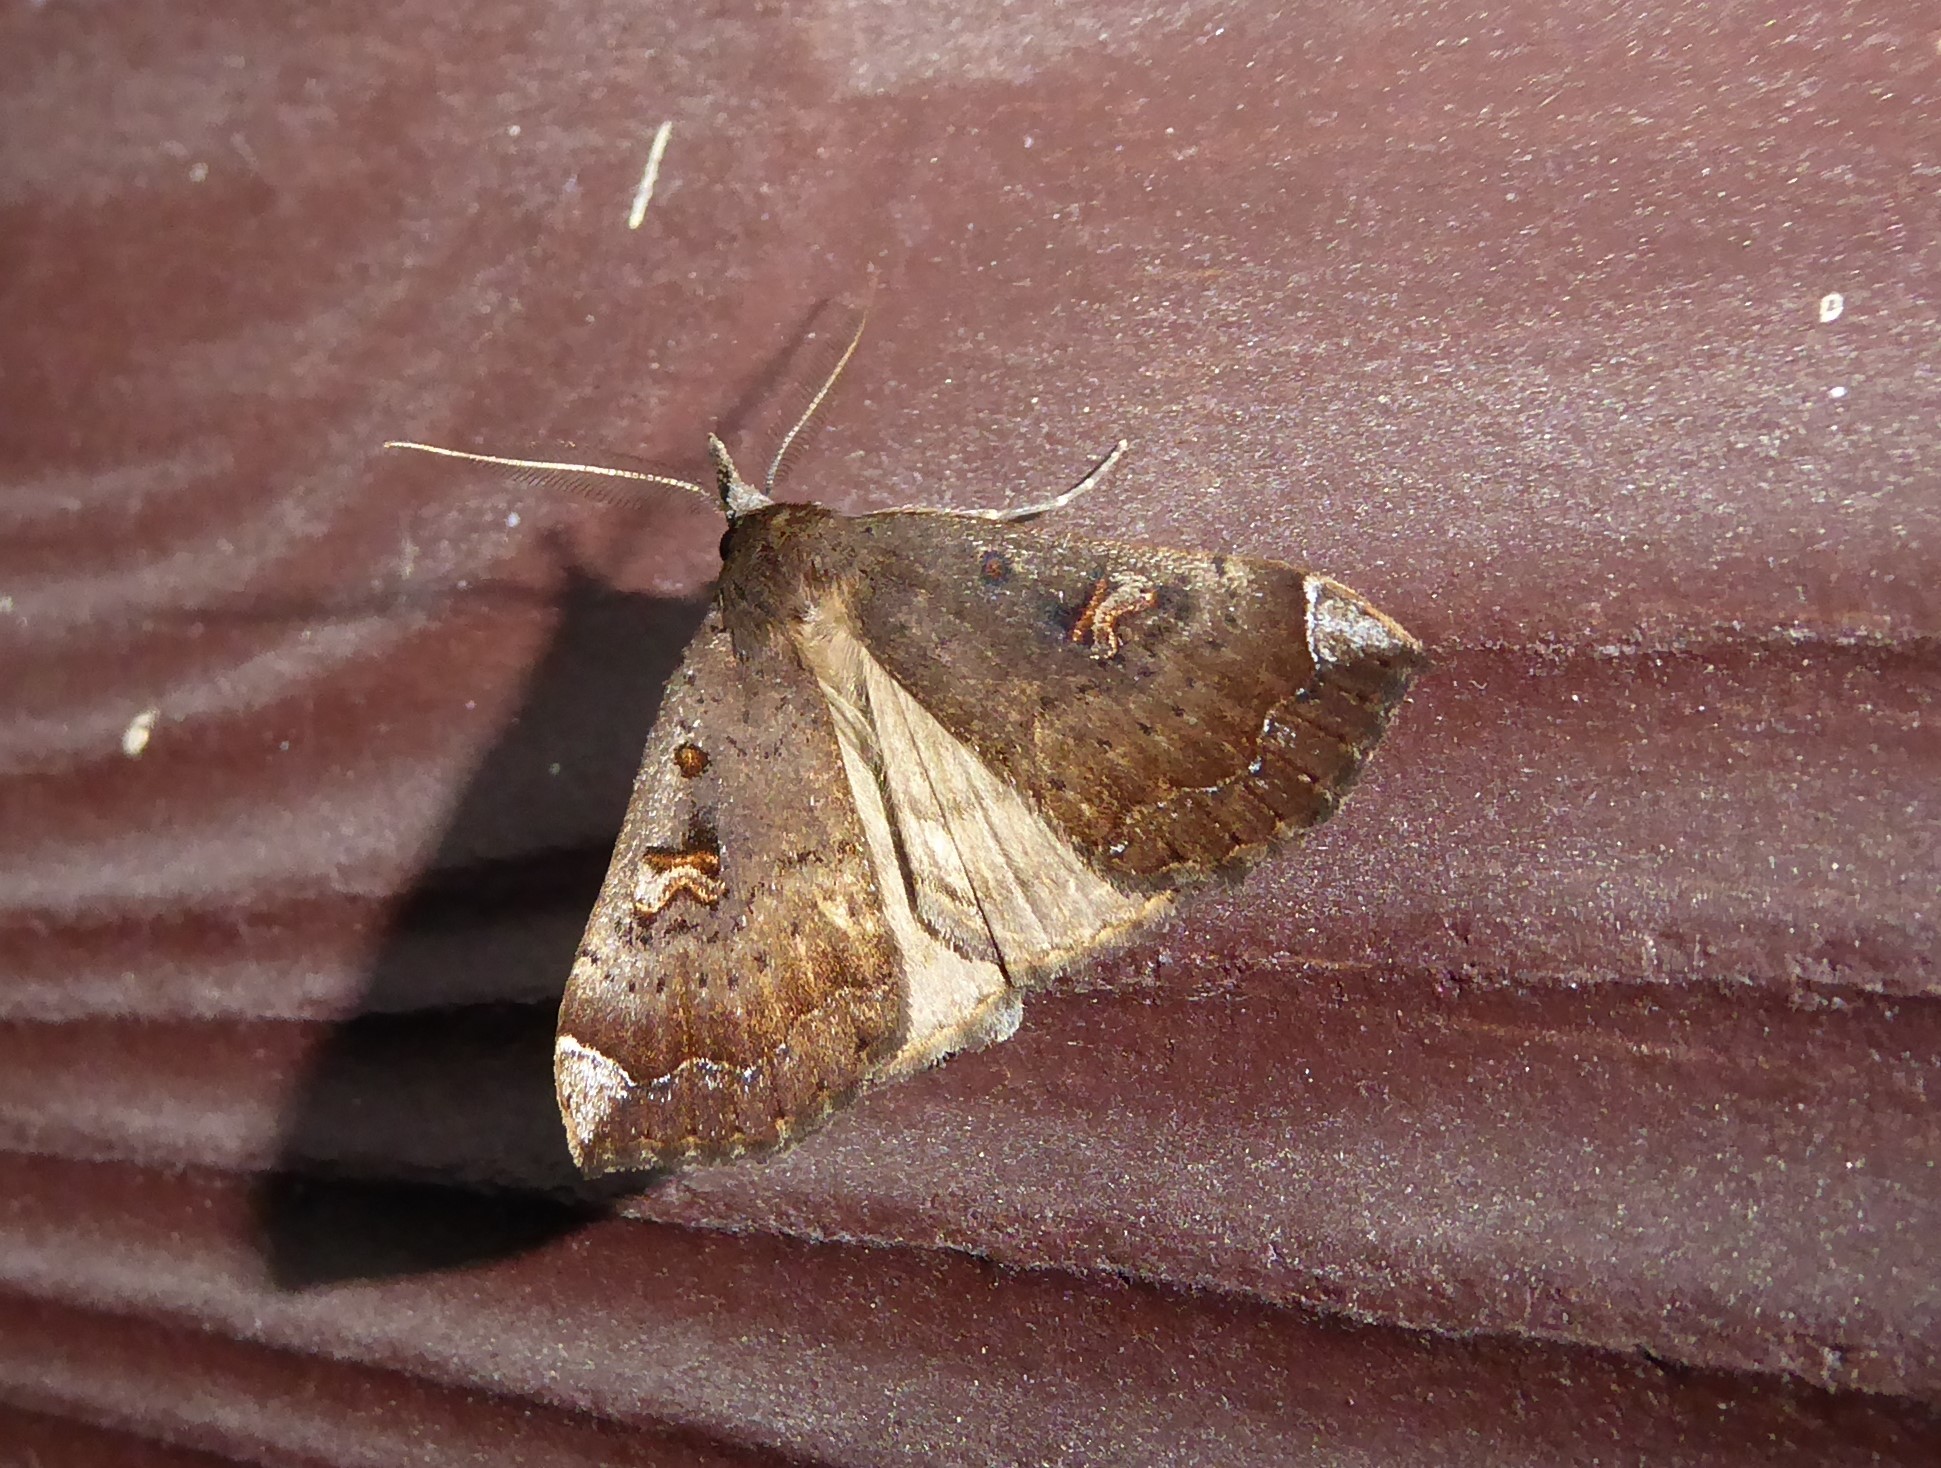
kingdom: Animalia
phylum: Arthropoda
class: Insecta
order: Lepidoptera
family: Erebidae
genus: Rhapsa
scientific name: Rhapsa scotosialis
